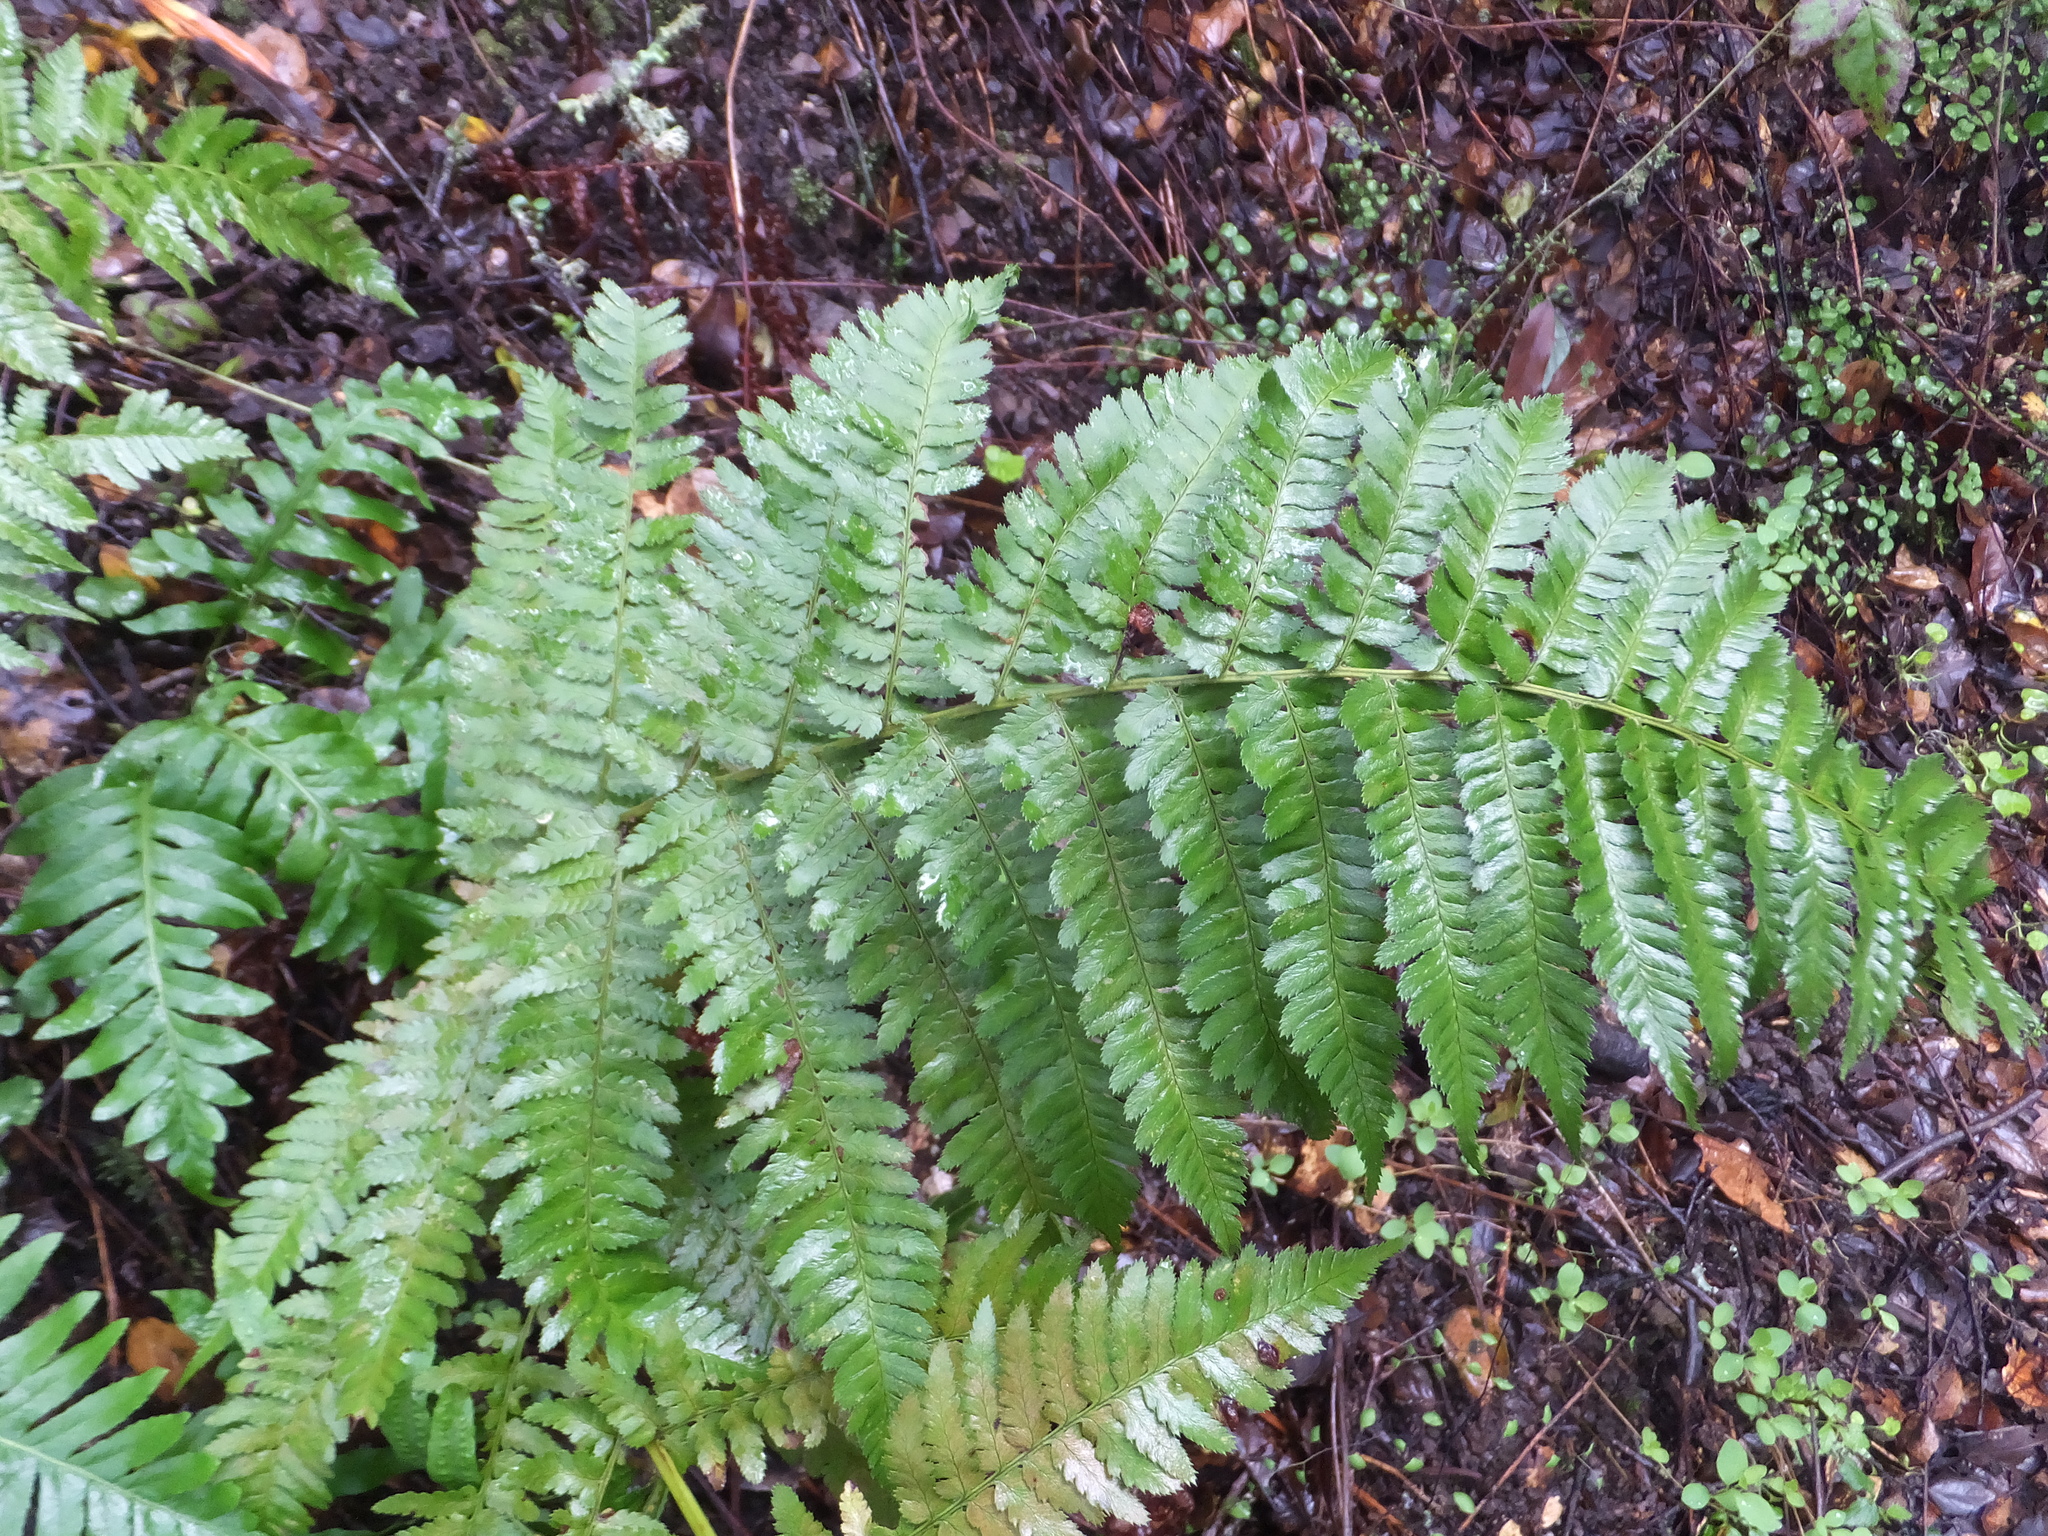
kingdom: Plantae
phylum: Tracheophyta
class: Polypodiopsida
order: Polypodiales
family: Dryopteridaceae
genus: Dryopteris
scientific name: Dryopteris arguta
